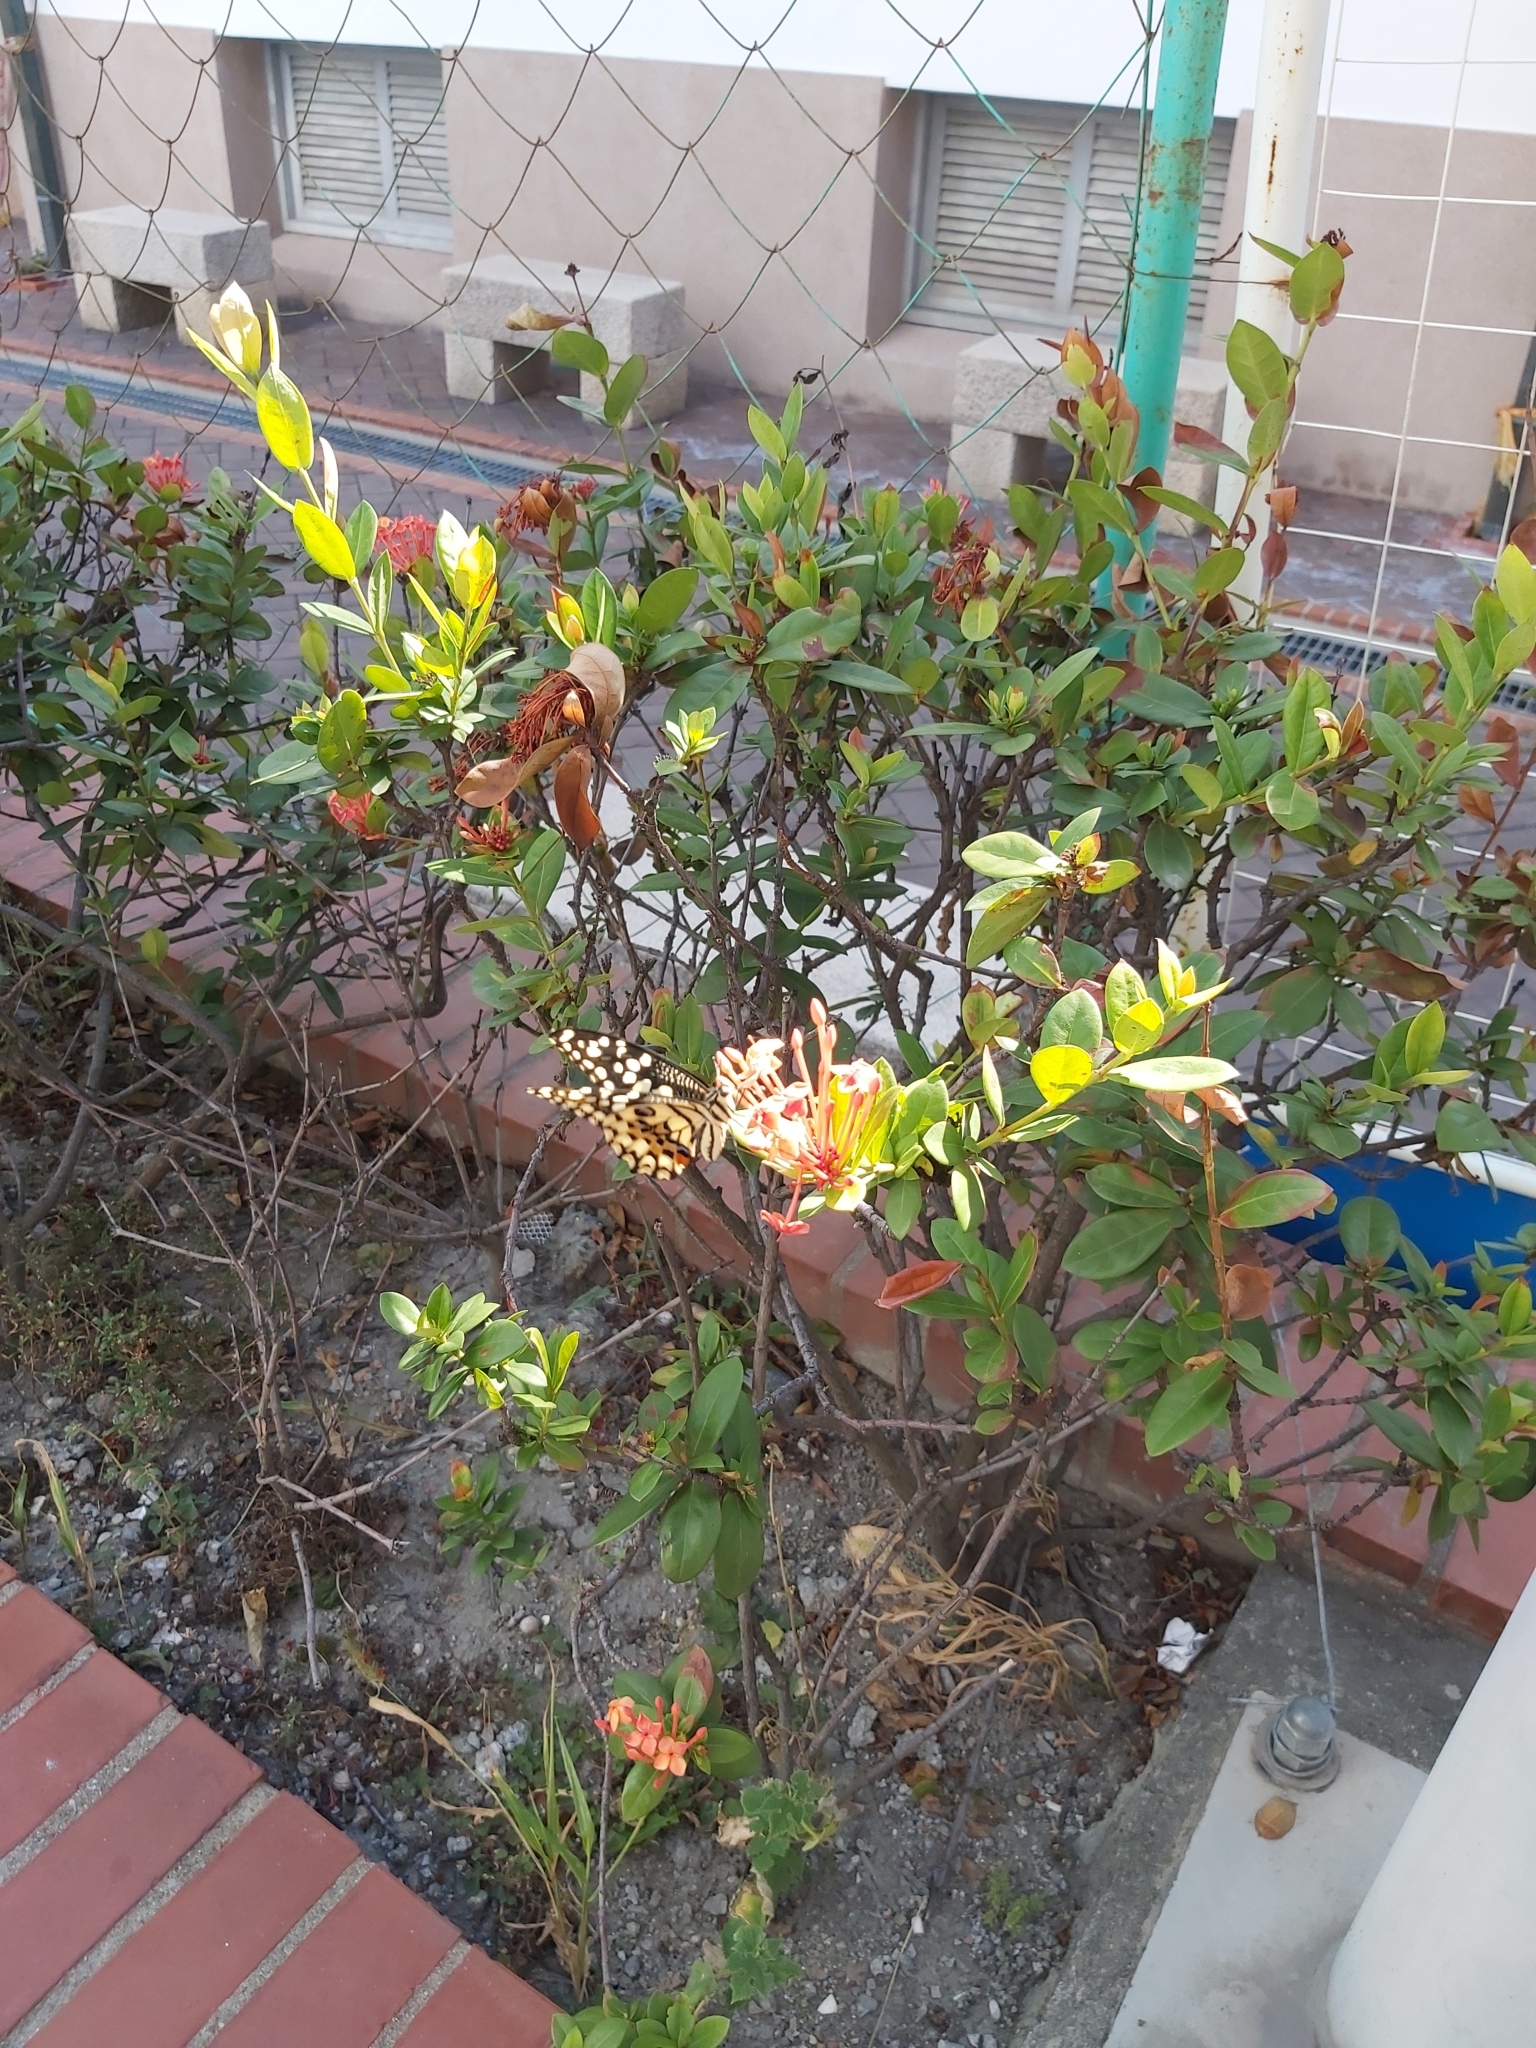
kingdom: Animalia
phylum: Arthropoda
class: Insecta
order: Lepidoptera
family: Papilionidae
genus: Papilio
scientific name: Papilio demoleus
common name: Lime butterfly
